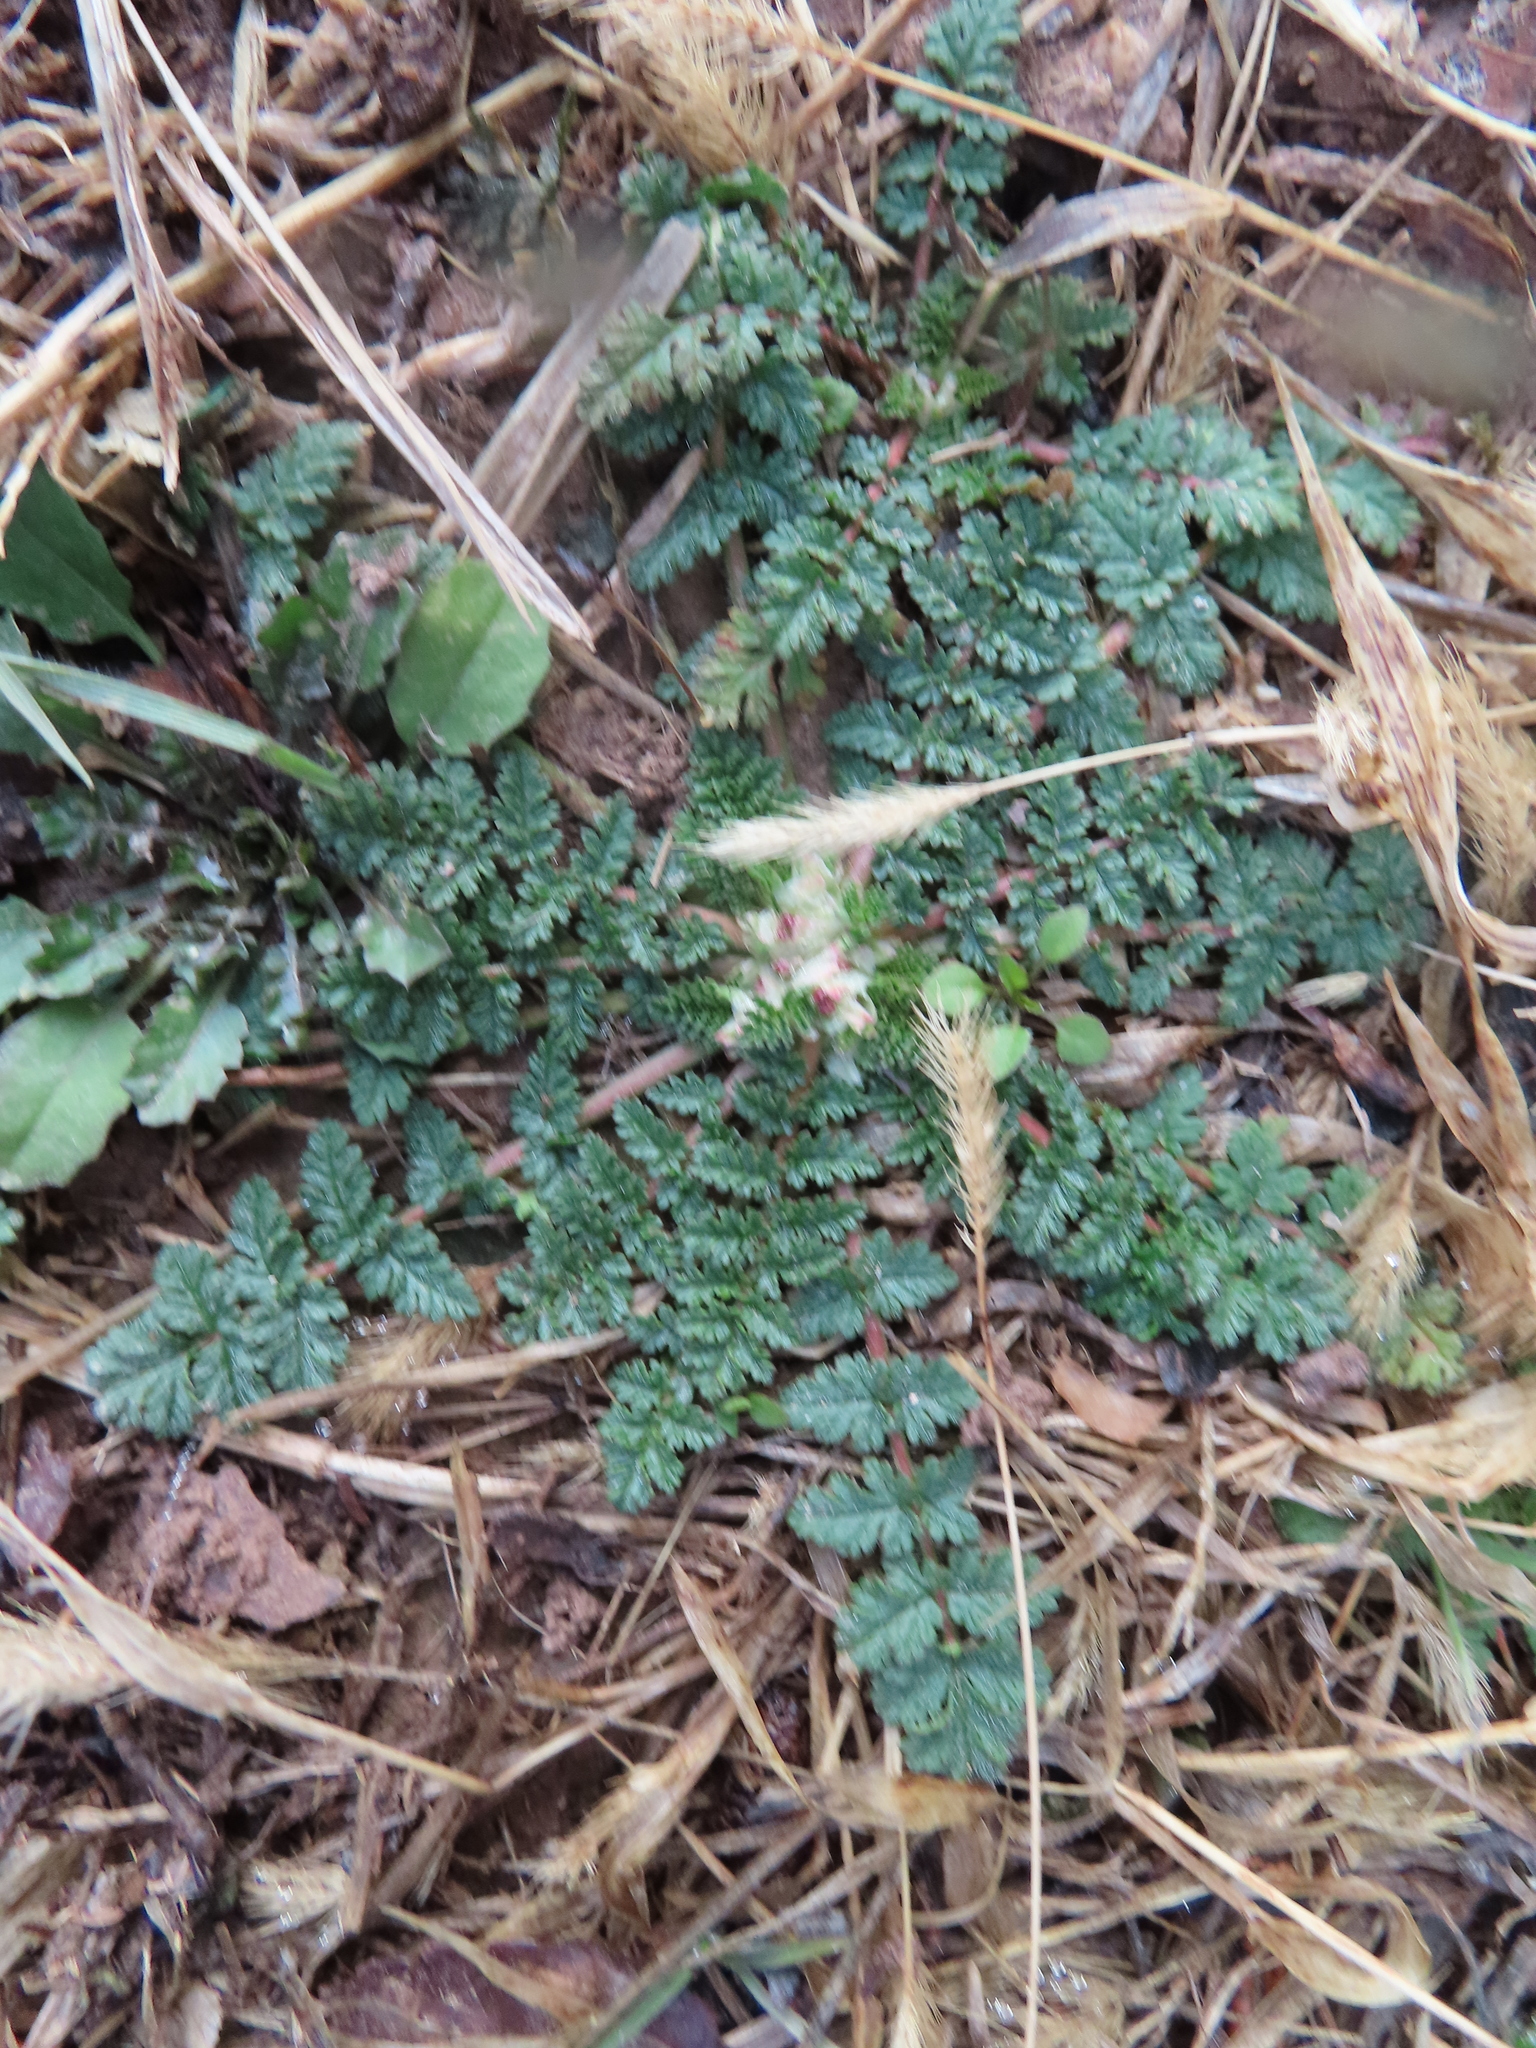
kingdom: Plantae
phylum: Tracheophyta
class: Magnoliopsida
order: Geraniales
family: Geraniaceae
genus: Erodium
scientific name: Erodium cicutarium
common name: Common stork's-bill
